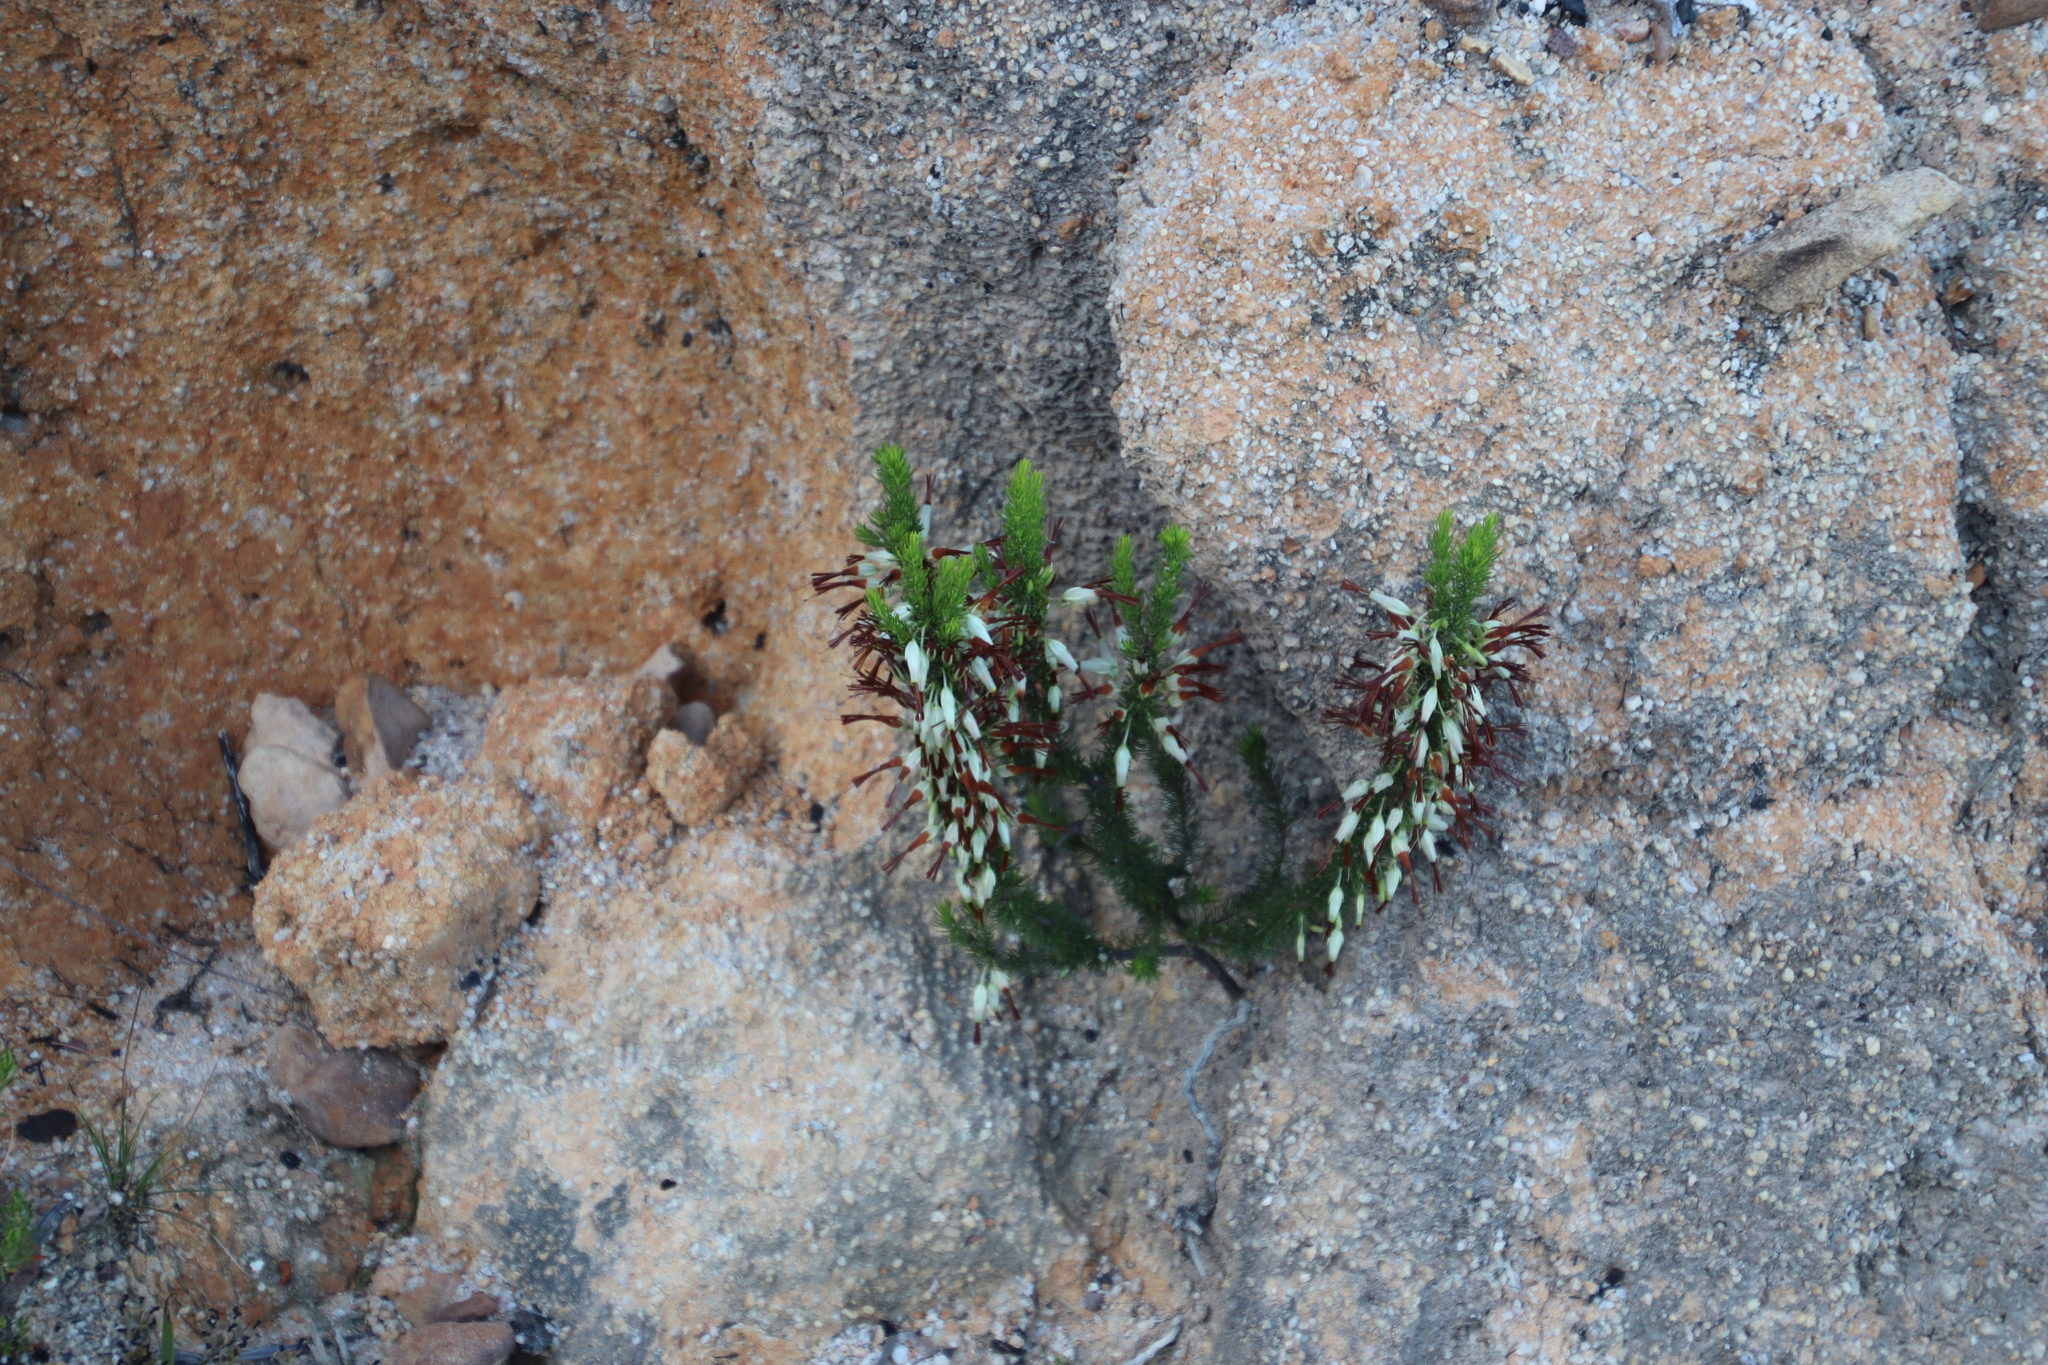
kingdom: Plantae
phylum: Tracheophyta
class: Magnoliopsida
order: Ericales
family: Ericaceae
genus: Erica
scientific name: Erica plukenetii
